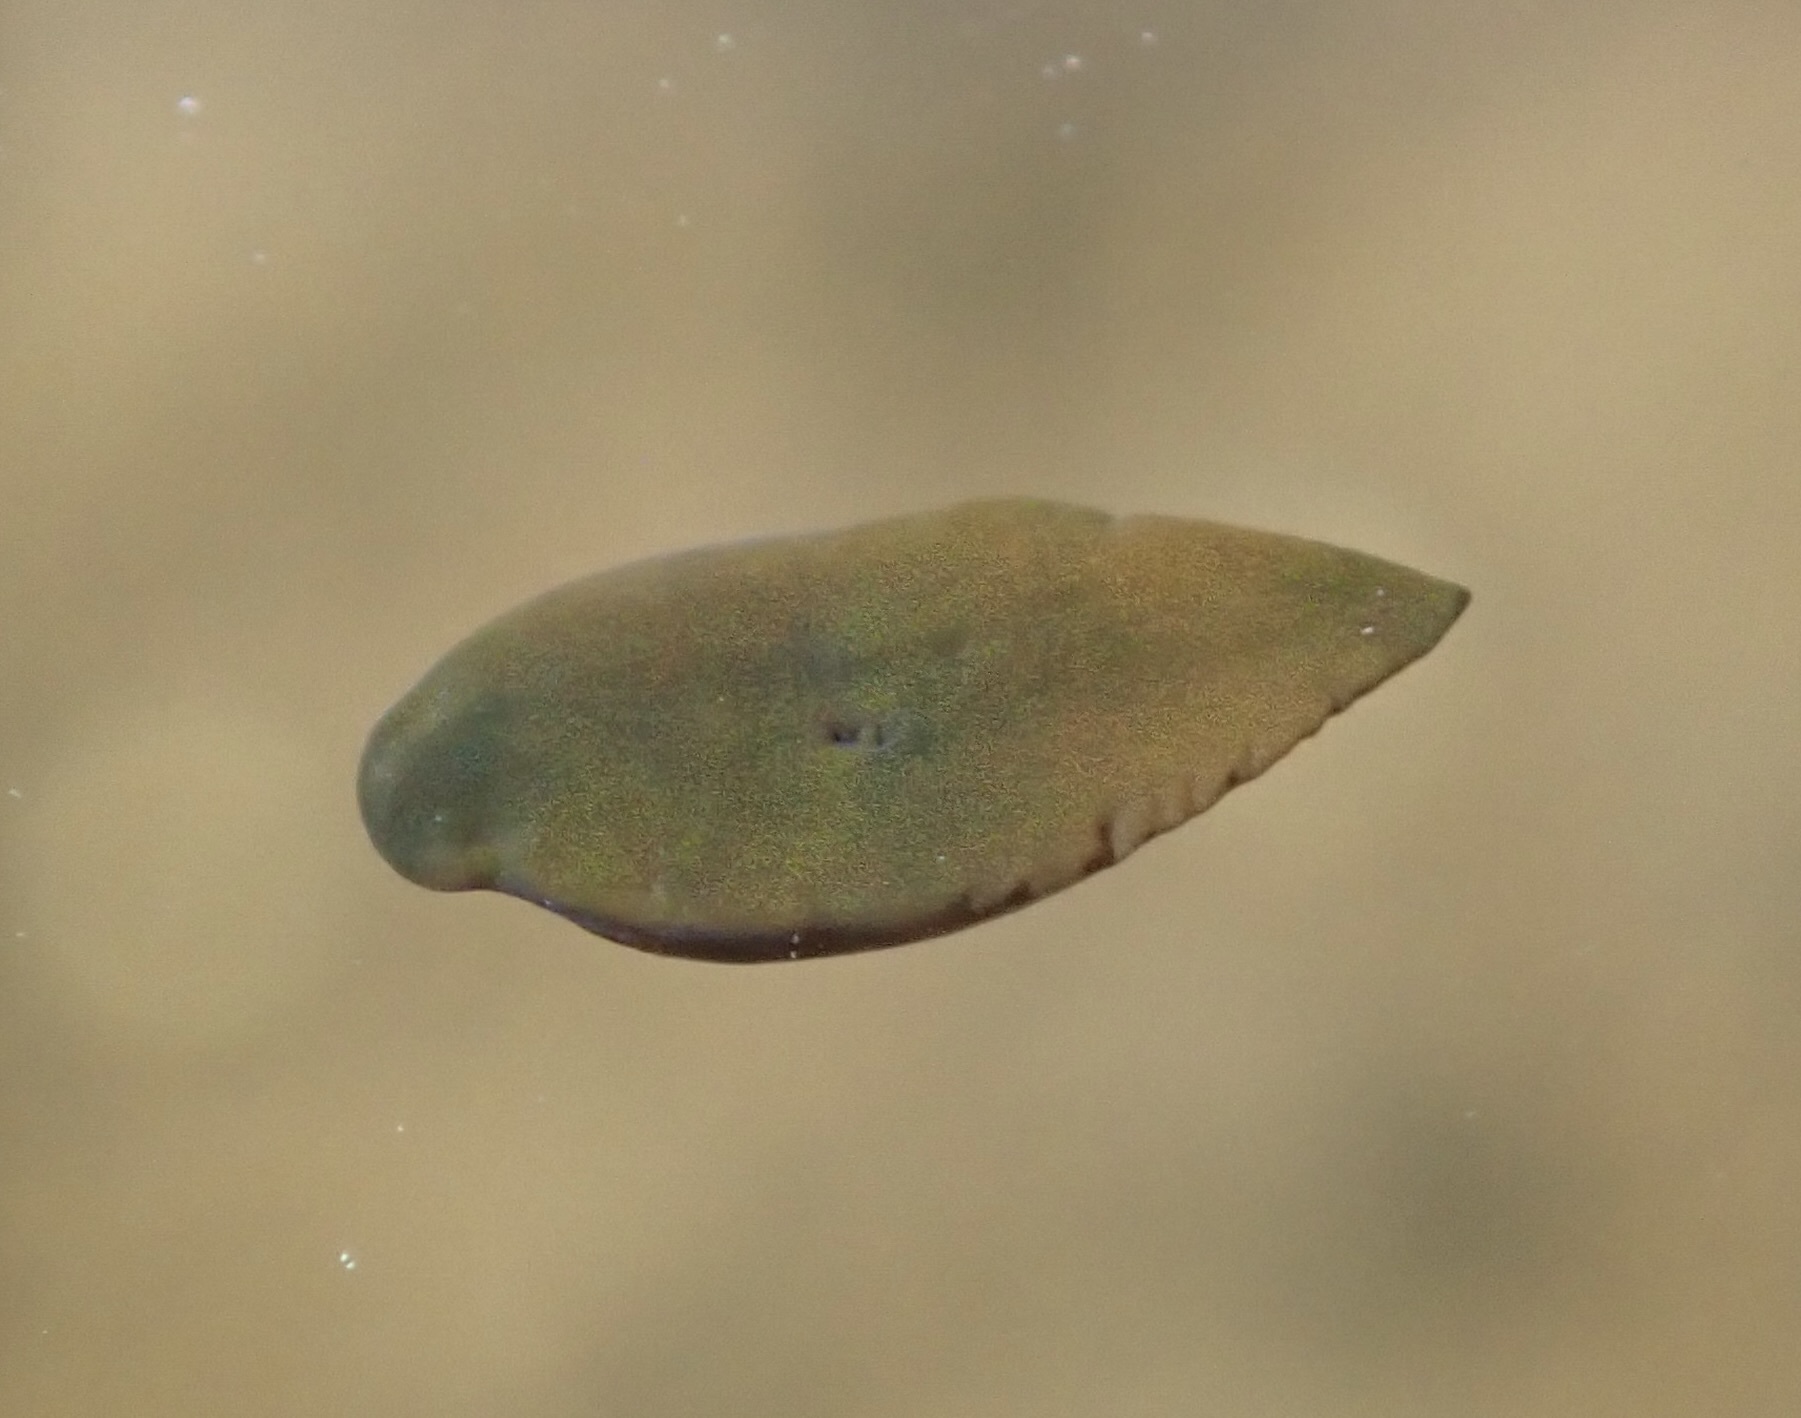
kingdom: Animalia
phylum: Platyhelminthes
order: Rhabdocoela
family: Typhloplanidae
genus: Mesostoma
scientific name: Mesostoma californicum
